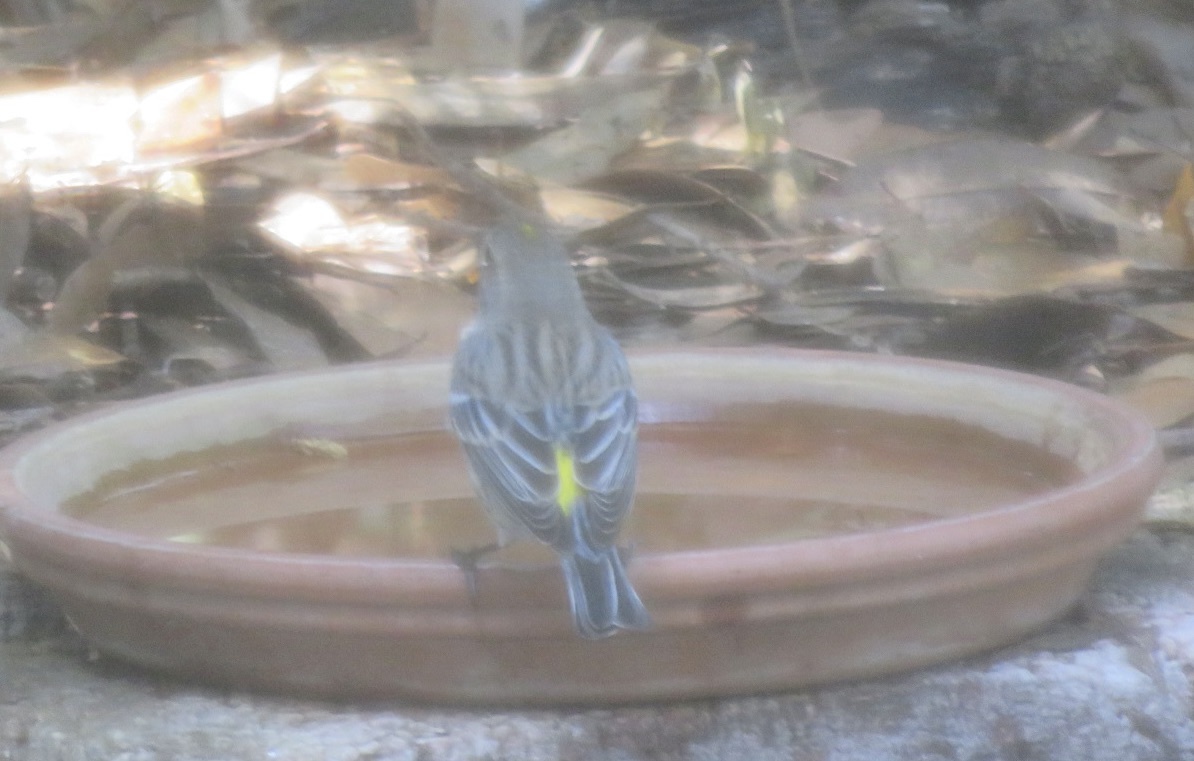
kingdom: Animalia
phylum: Chordata
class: Aves
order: Passeriformes
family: Parulidae
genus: Setophaga
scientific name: Setophaga coronata
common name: Myrtle warbler
